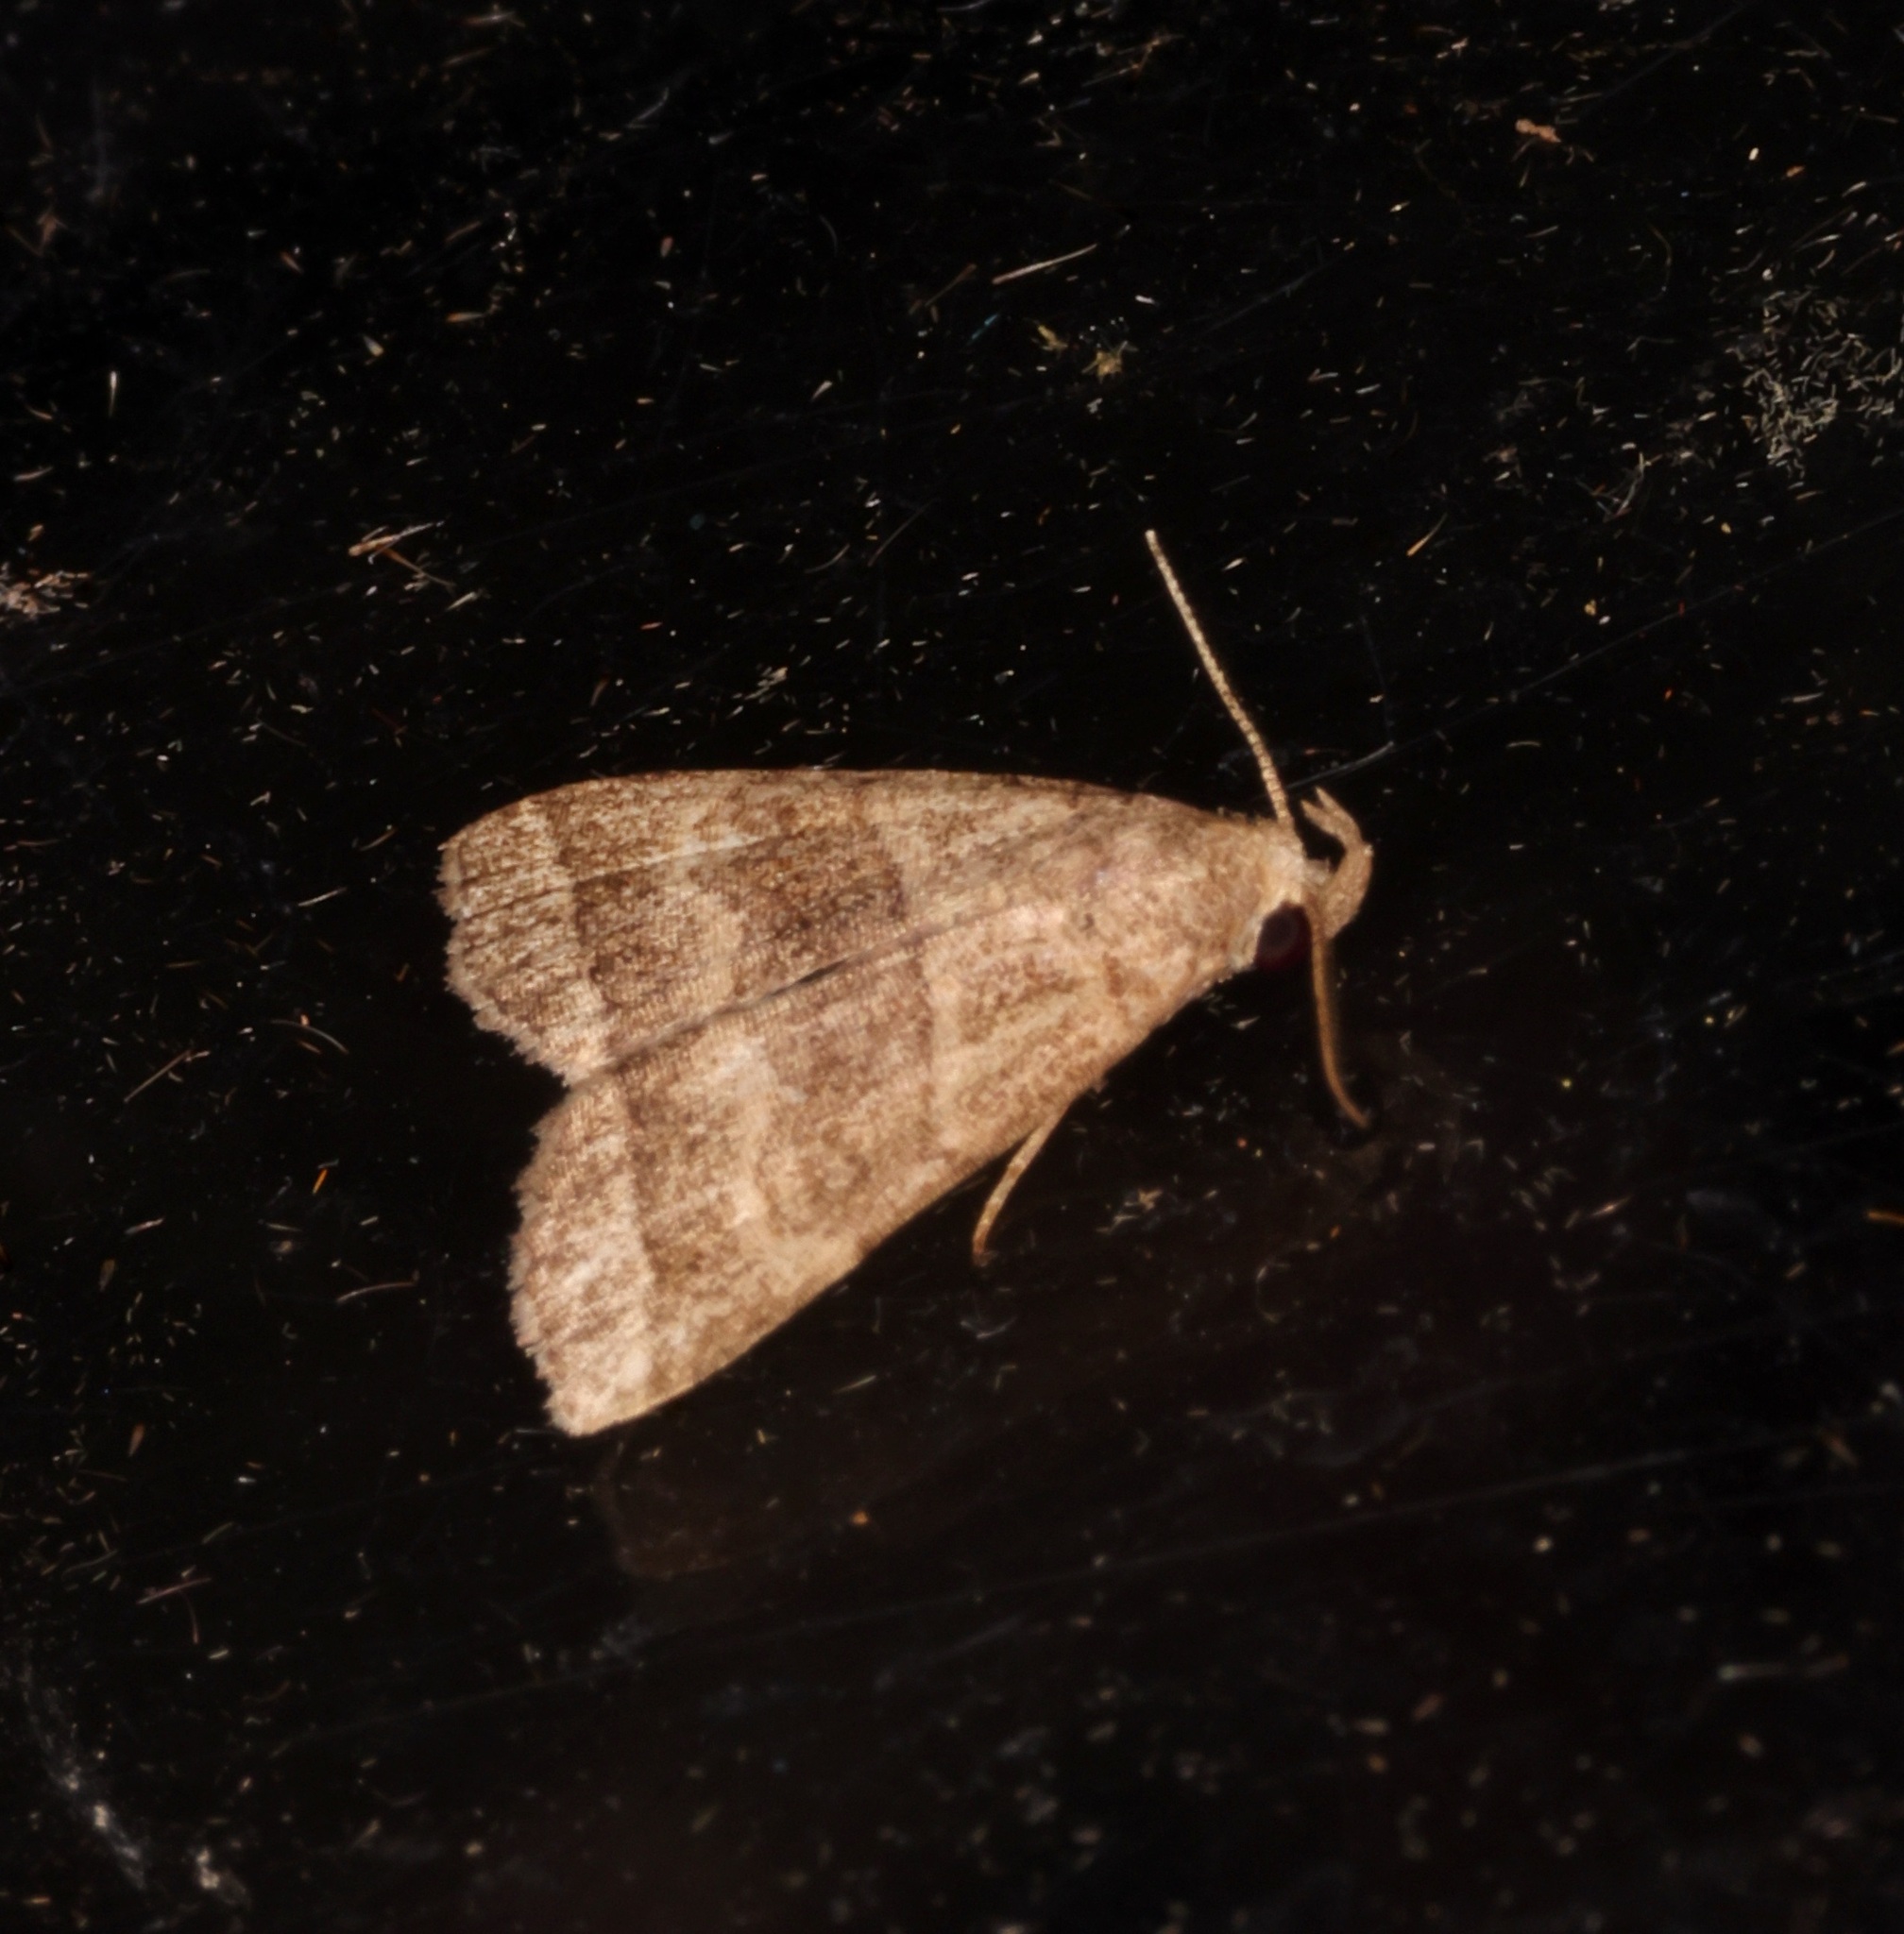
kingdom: Animalia
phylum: Arthropoda
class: Insecta
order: Lepidoptera
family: Erebidae
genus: Herminia
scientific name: Herminia annulata
